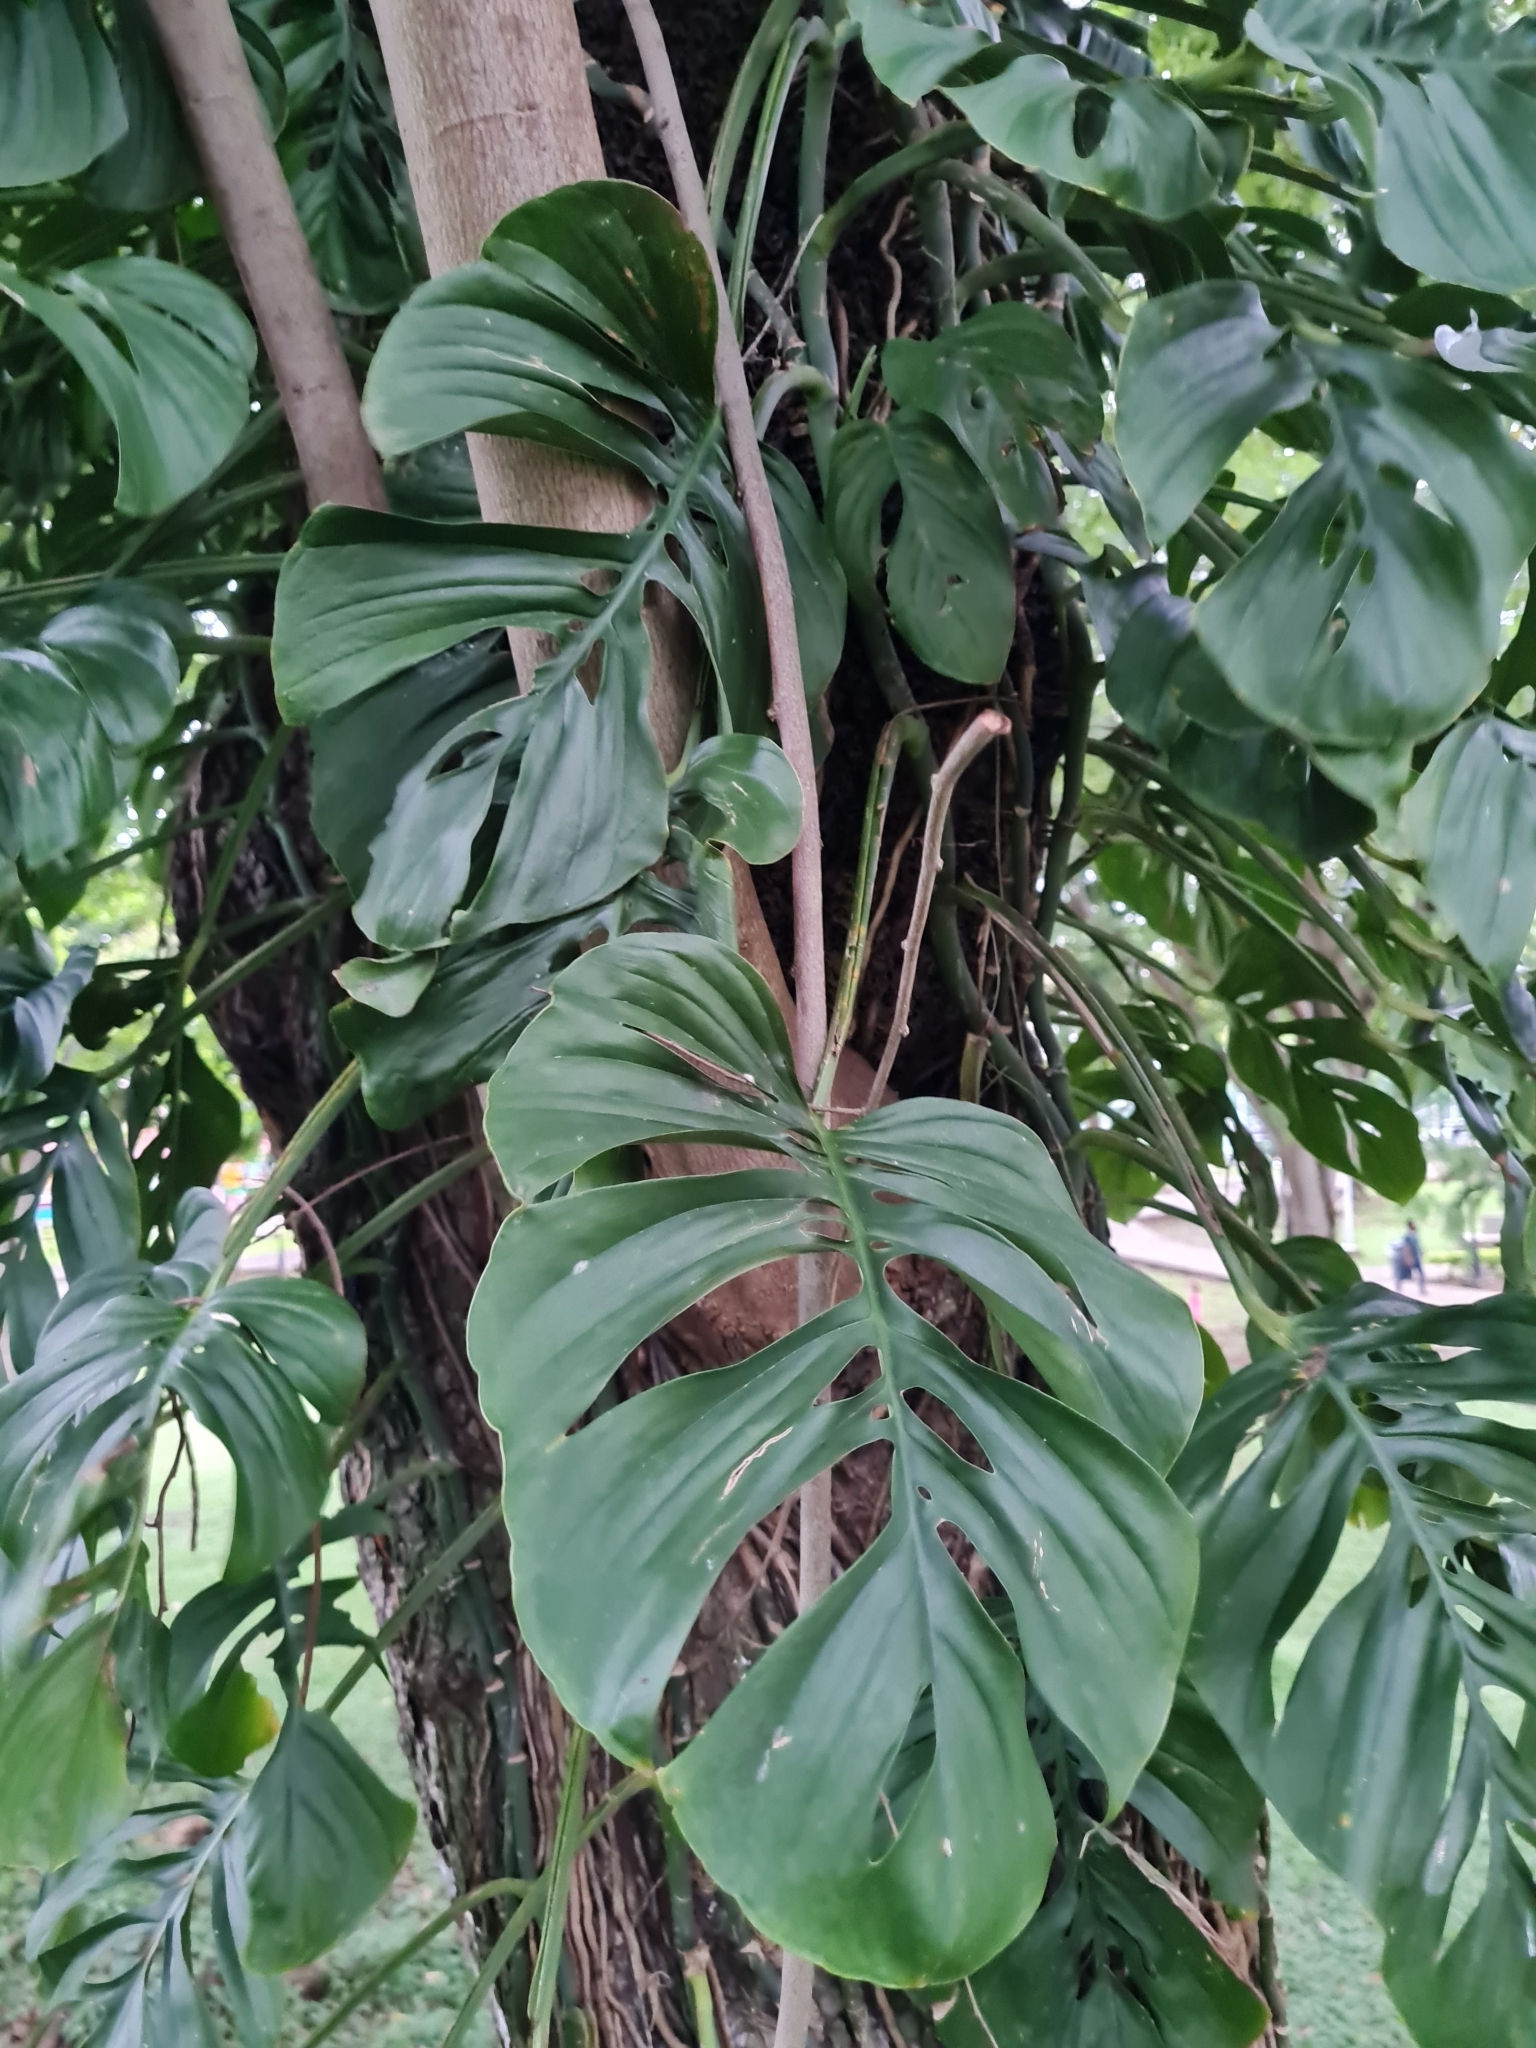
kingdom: Plantae
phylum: Tracheophyta
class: Liliopsida
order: Alismatales
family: Araceae
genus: Monstera
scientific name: Monstera adansonii
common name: Tarovine
